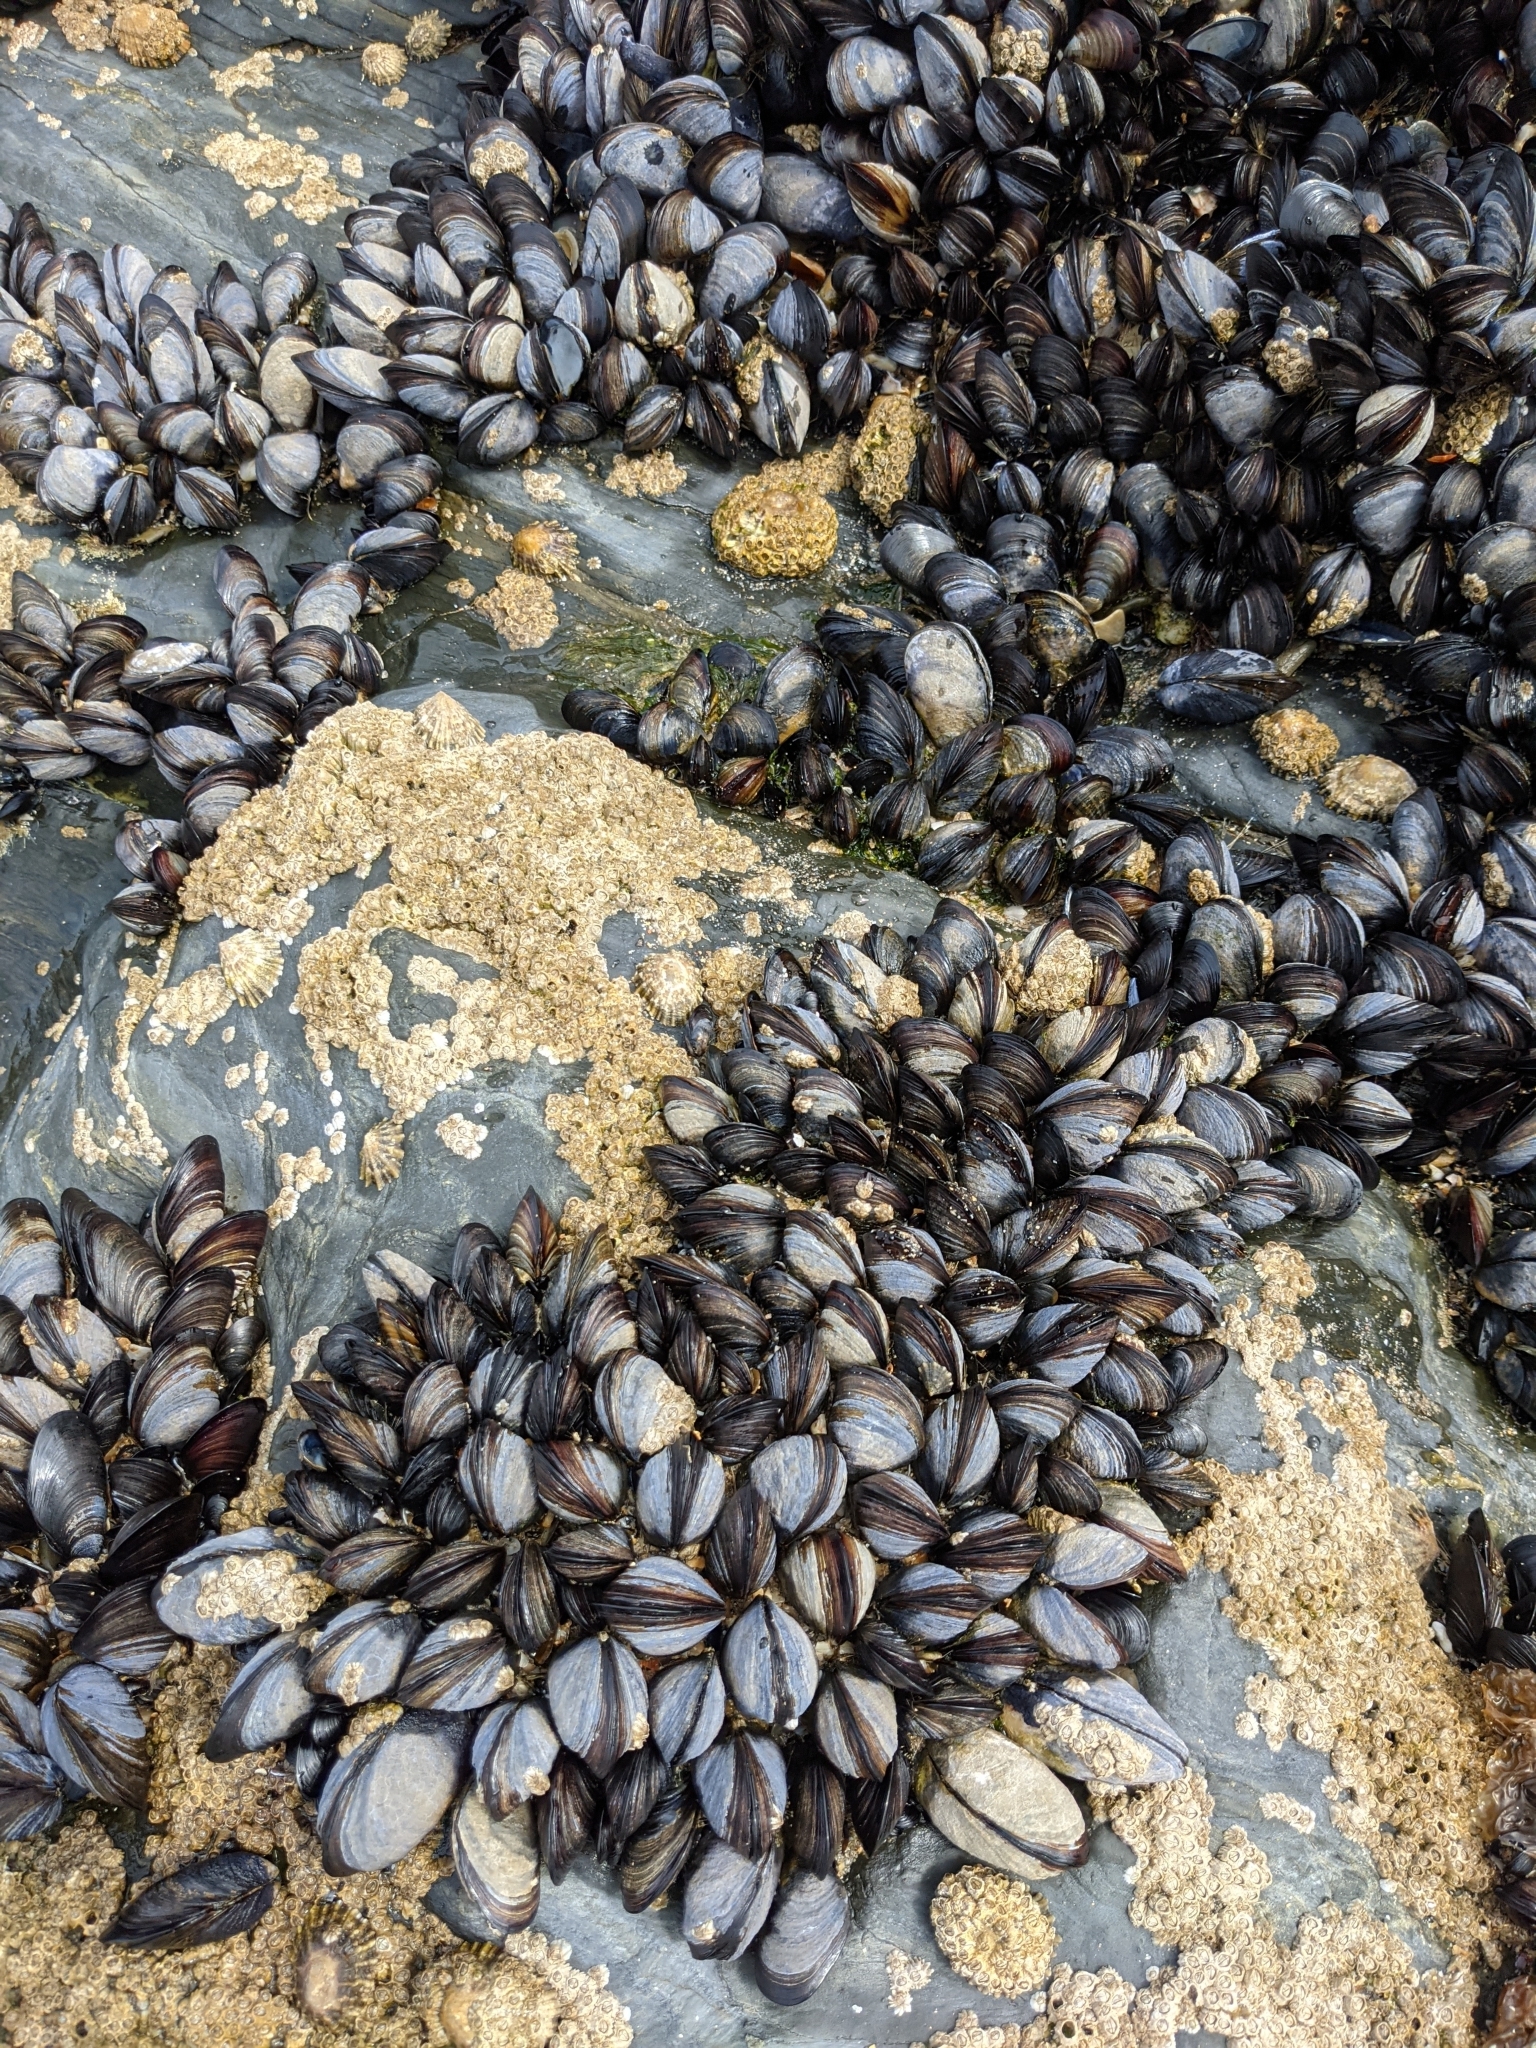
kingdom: Animalia
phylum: Mollusca
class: Bivalvia
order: Mytilida
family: Mytilidae
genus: Mytilus
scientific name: Mytilus edulis
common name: Blue mussel
